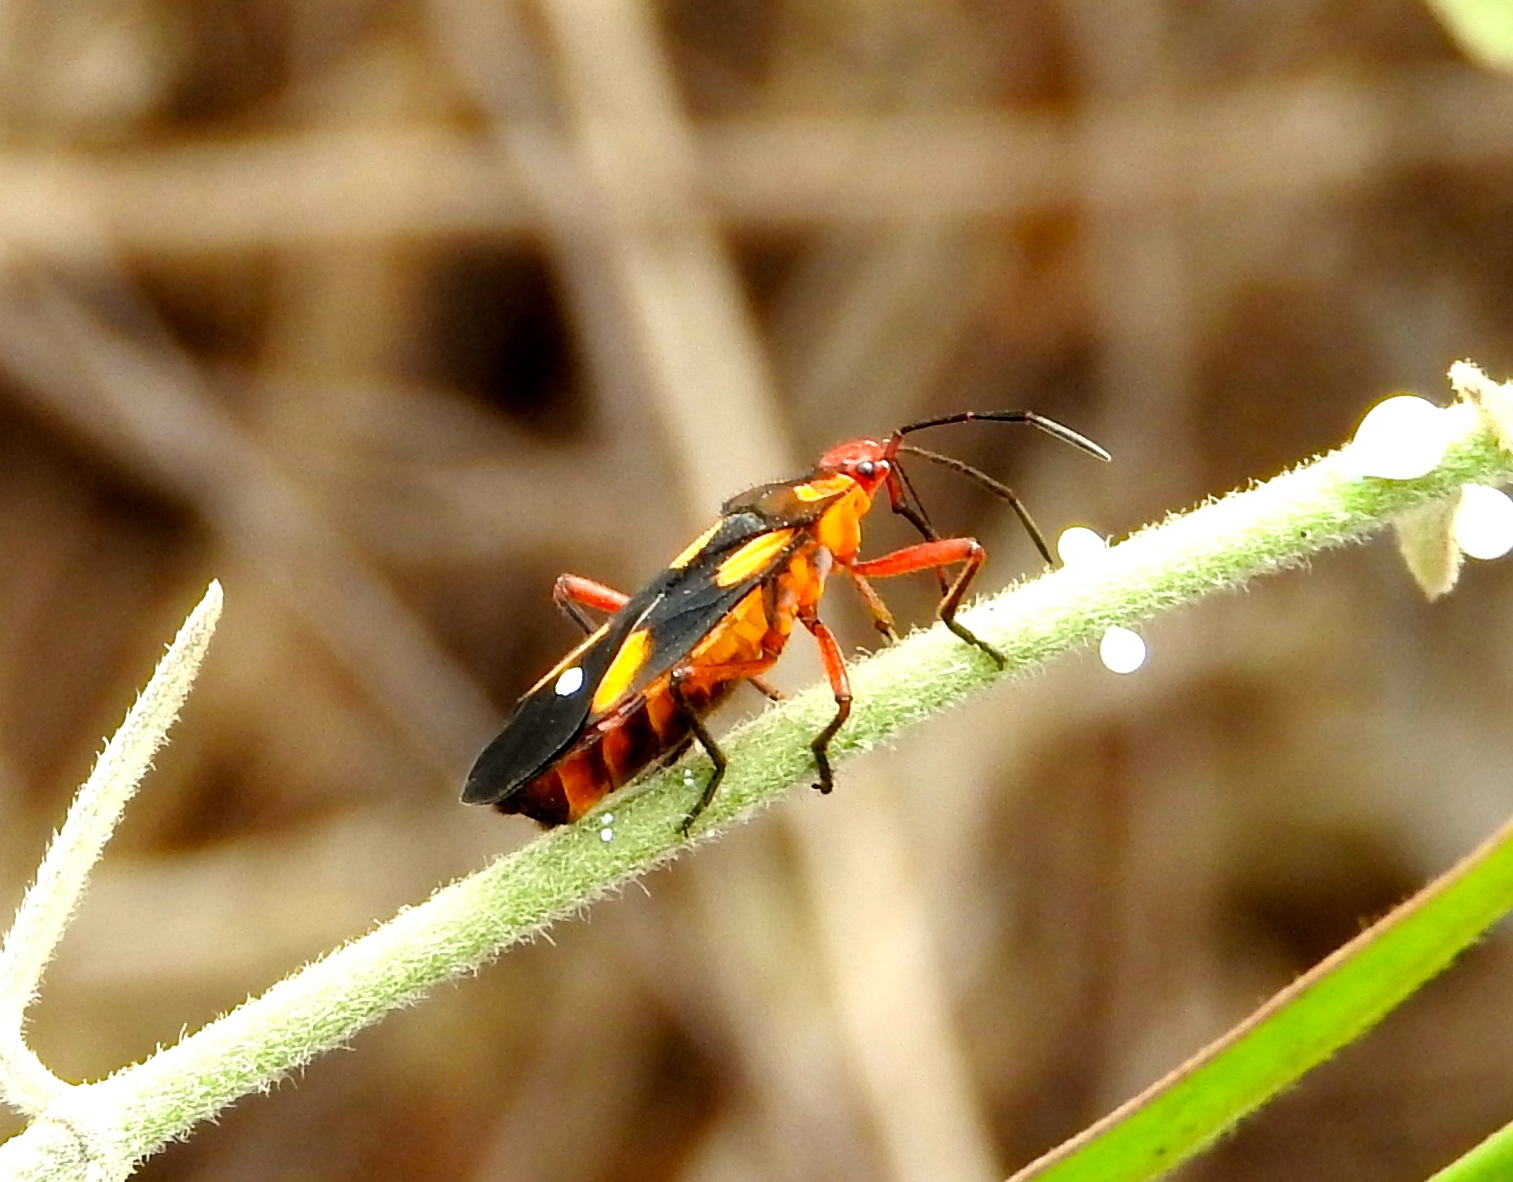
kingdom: Animalia
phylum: Arthropoda
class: Insecta
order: Hemiptera
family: Lygaeidae
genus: Oncopeltus
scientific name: Oncopeltus sexmaculatus
